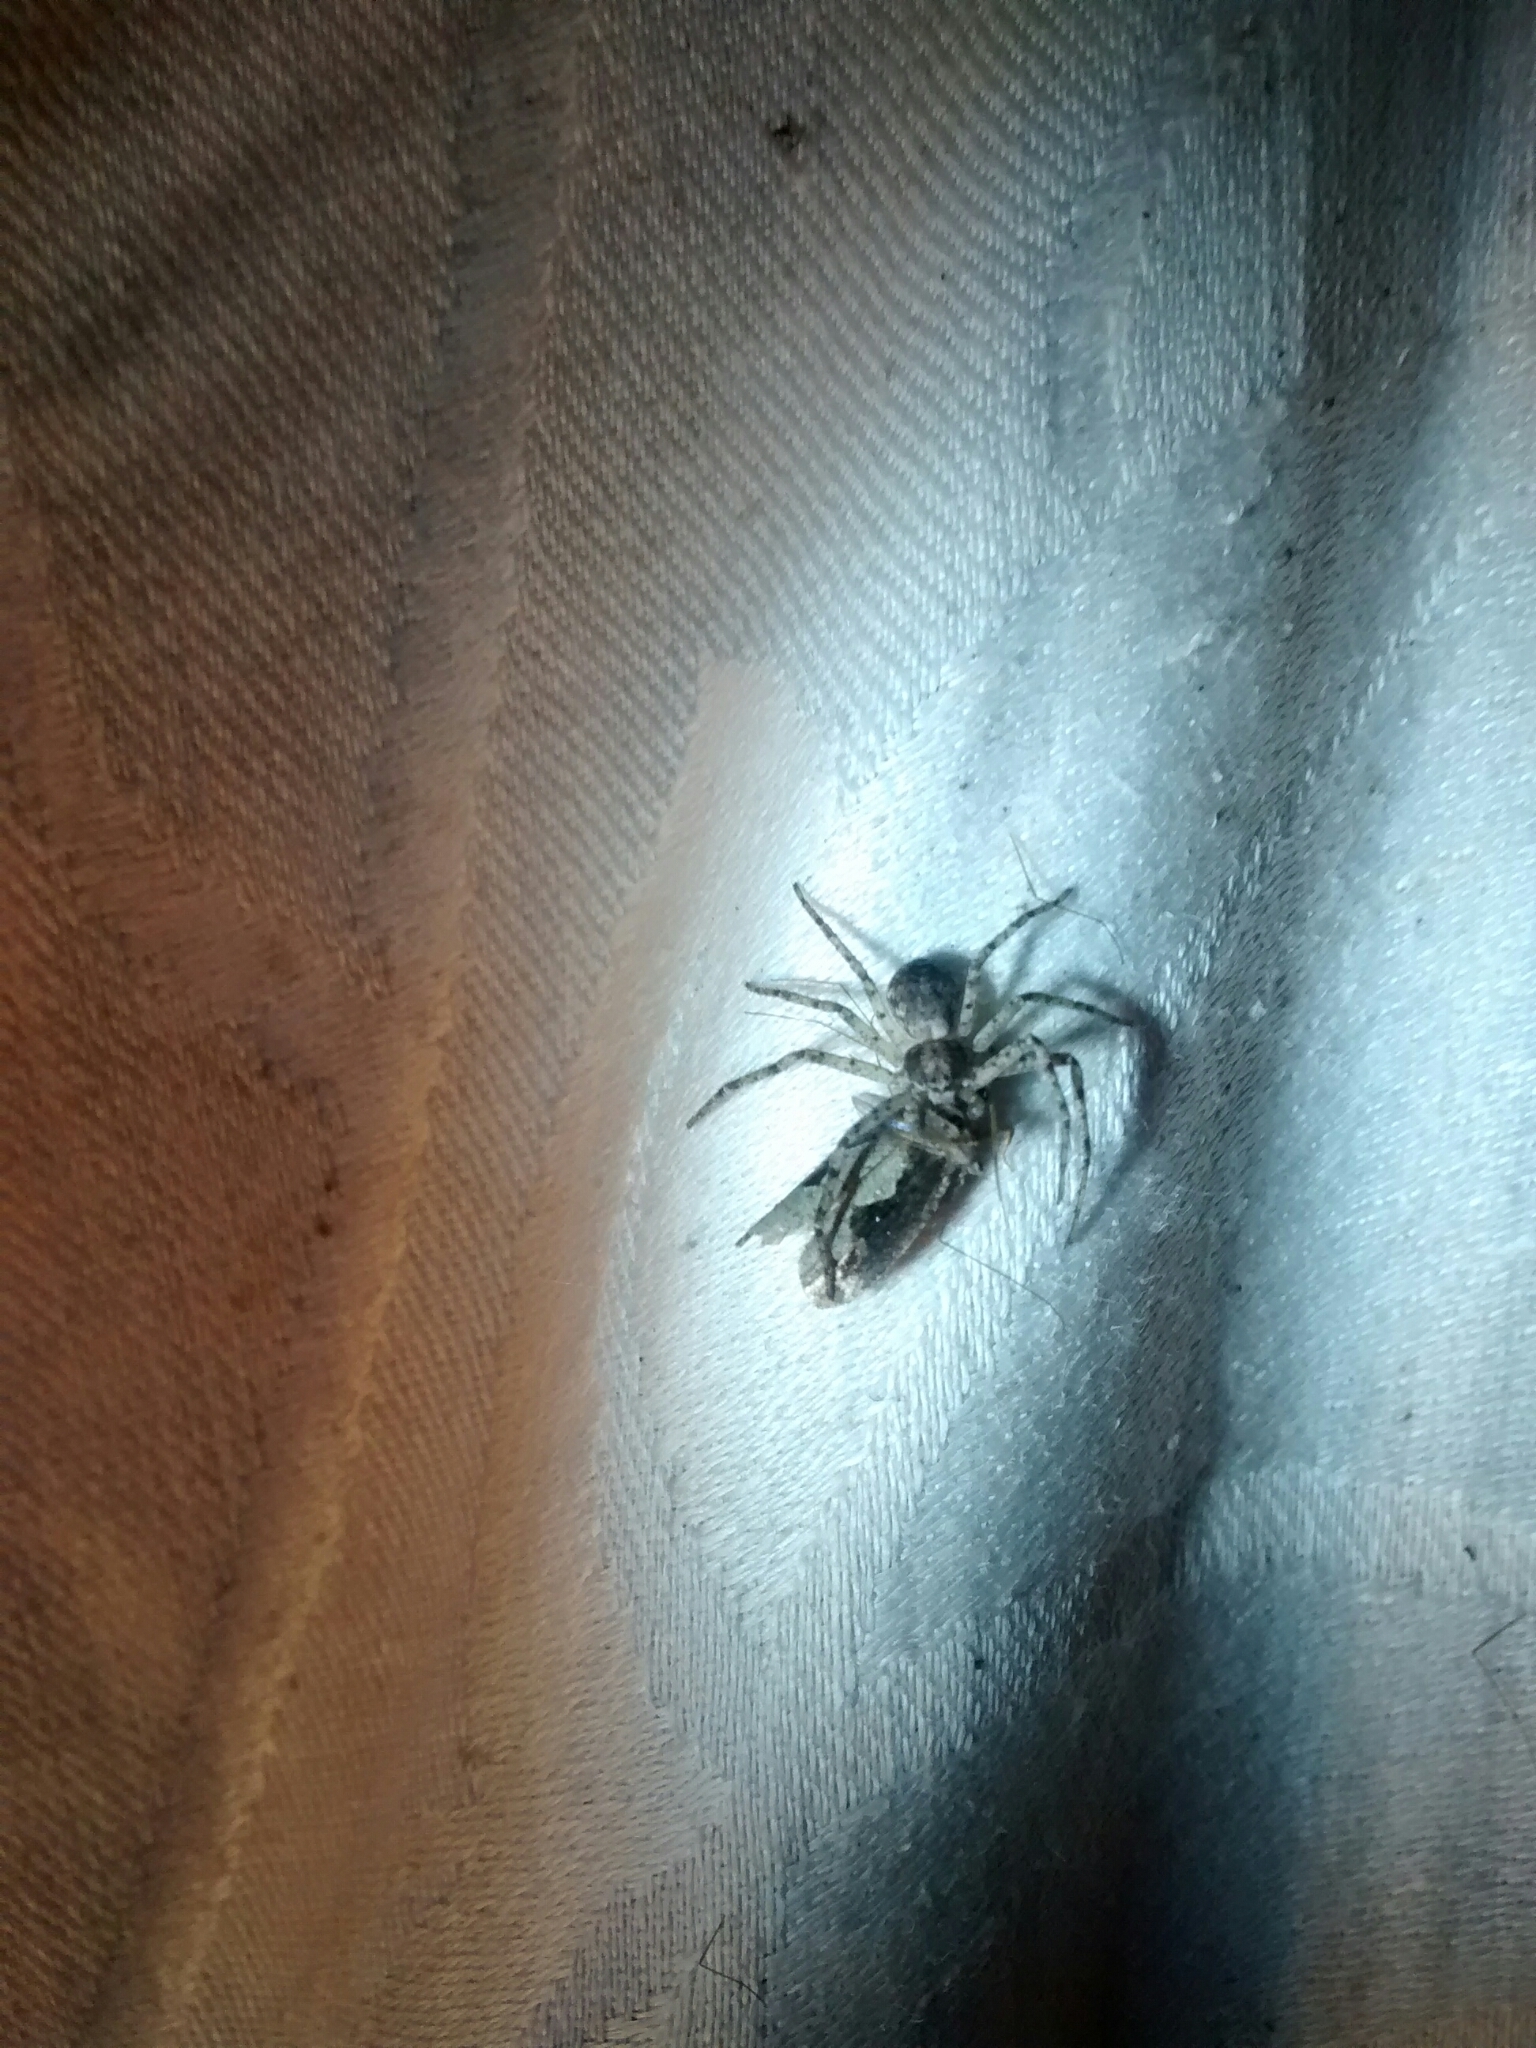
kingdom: Animalia
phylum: Arthropoda
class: Insecta
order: Lepidoptera
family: Tortricidae
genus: Epinotia
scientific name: Epinotia lindana
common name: Diamondback epinotia moth
